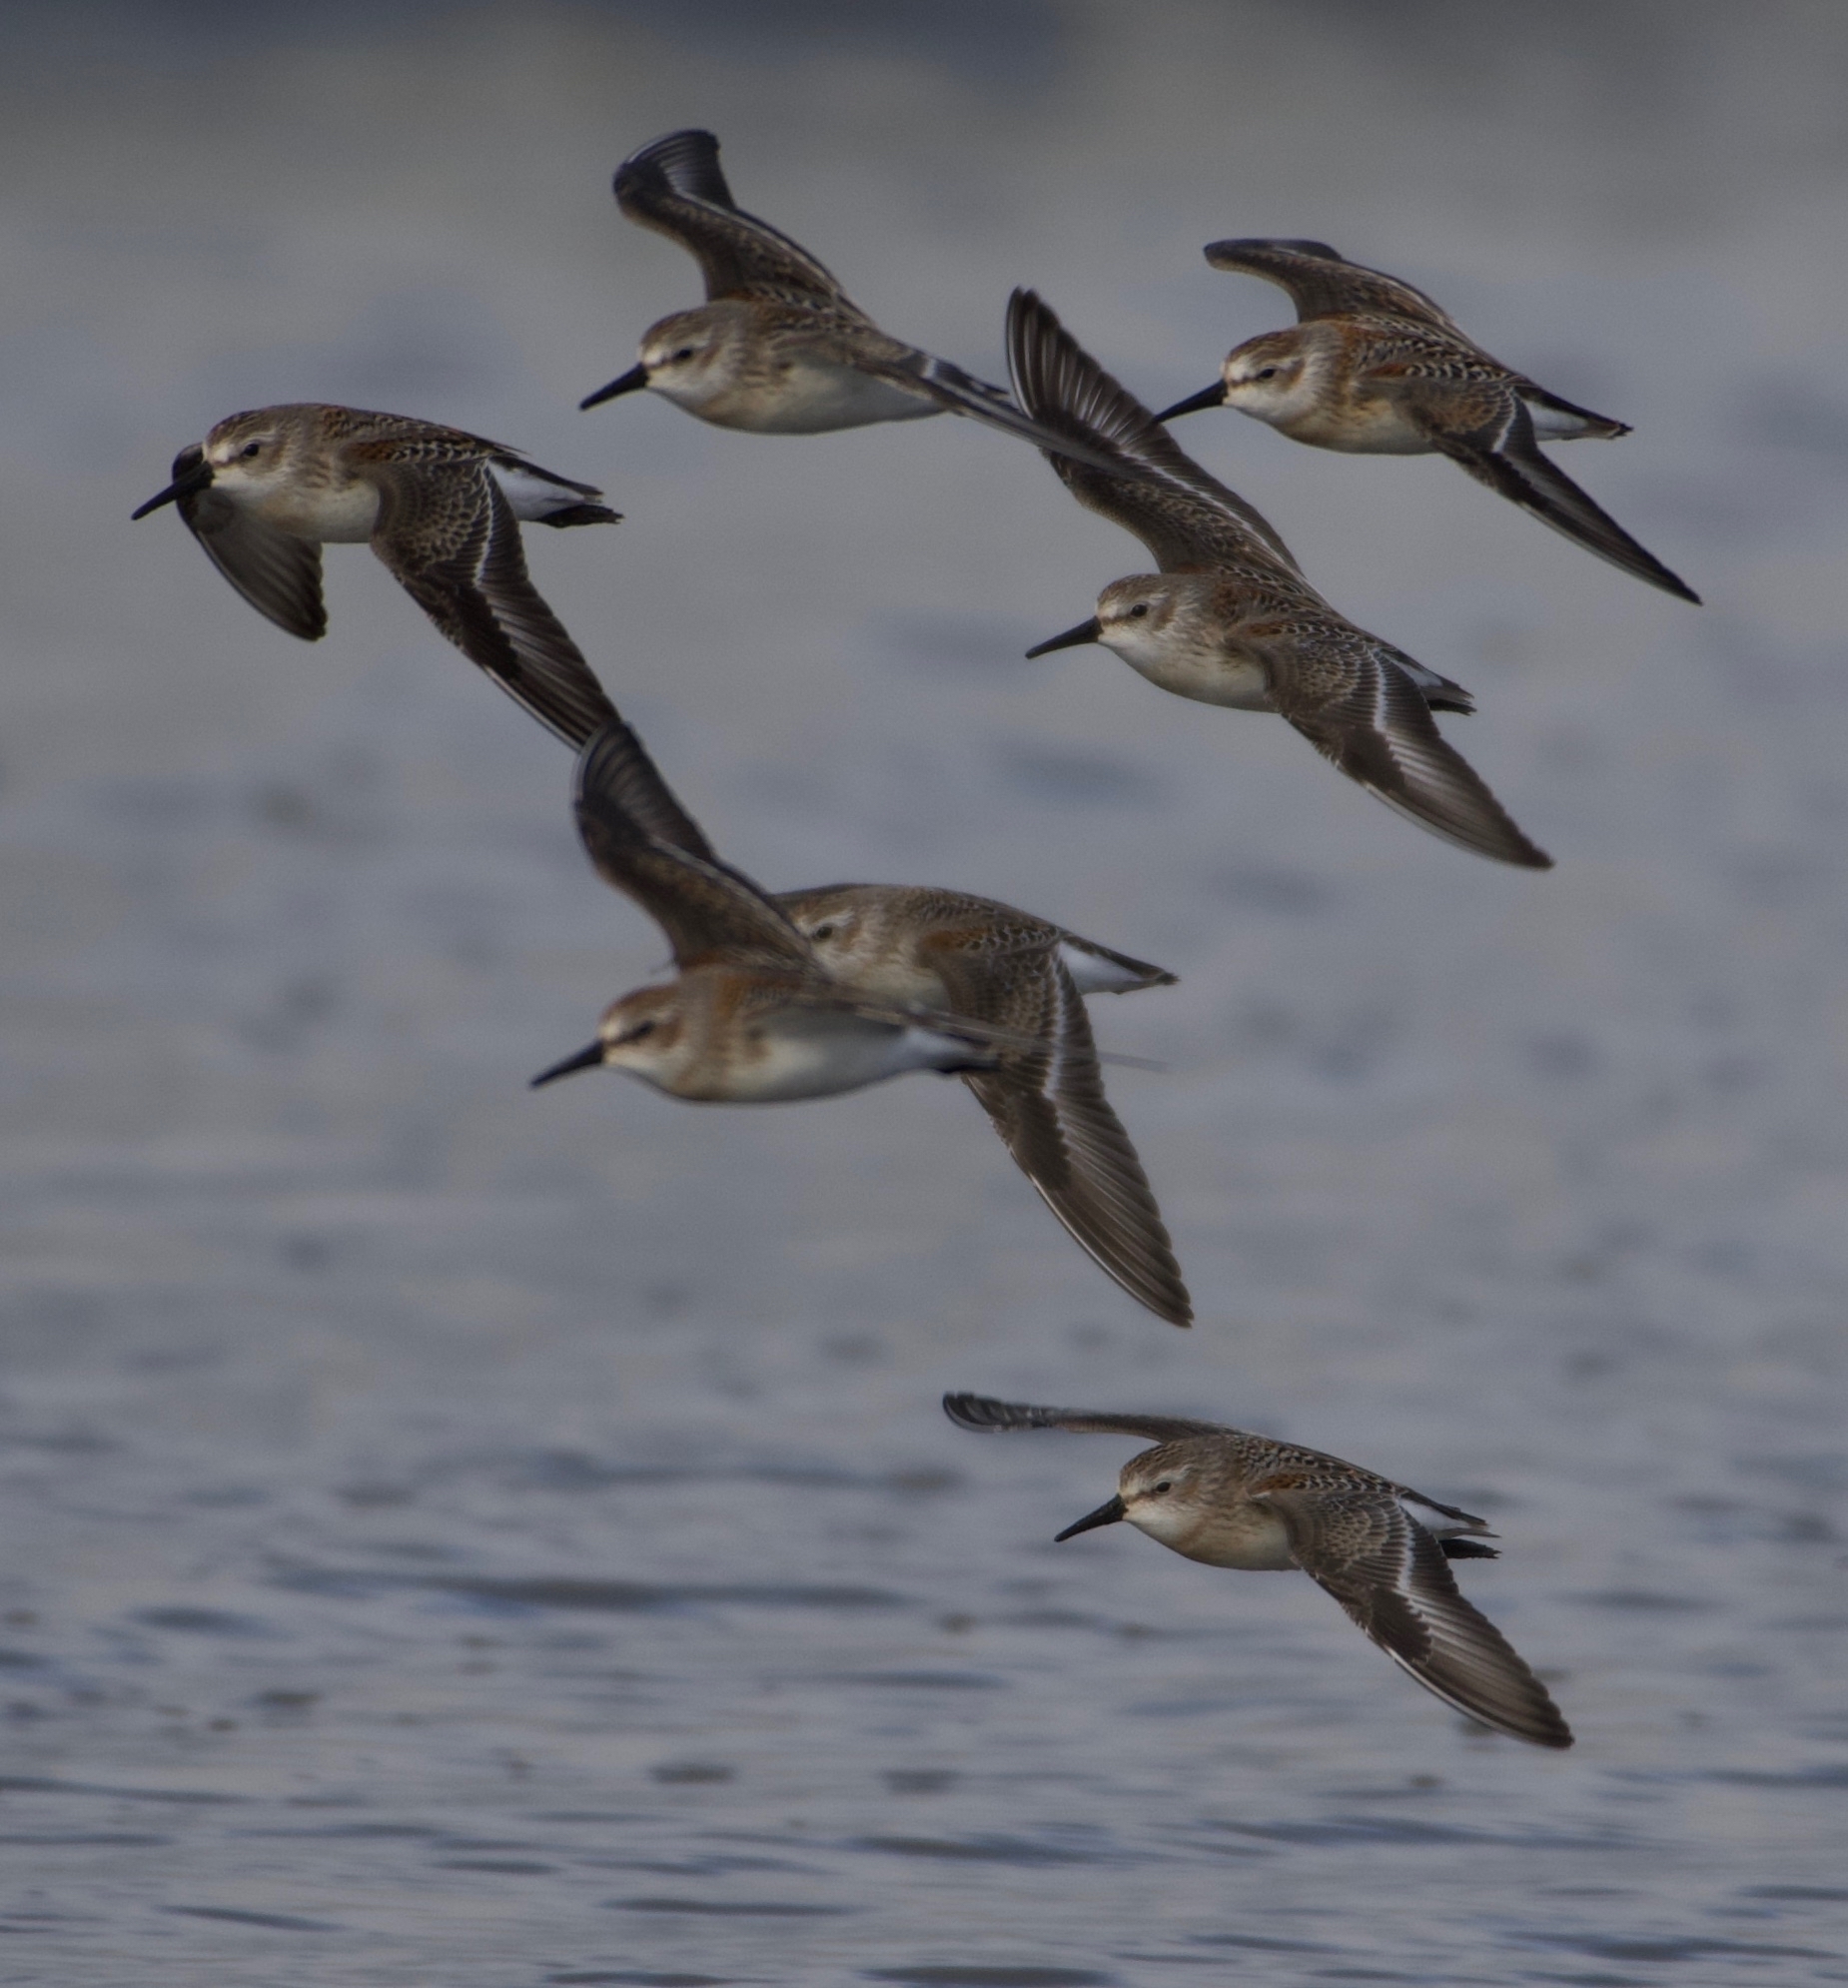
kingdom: Animalia
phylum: Chordata
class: Aves
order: Charadriiformes
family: Scolopacidae
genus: Calidris
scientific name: Calidris mauri
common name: Western sandpiper
